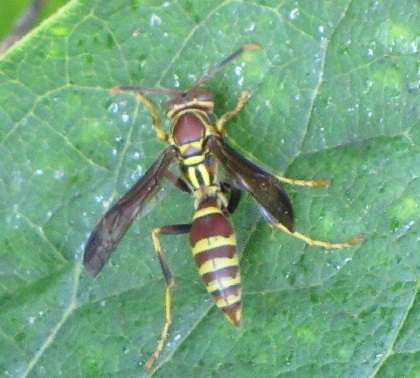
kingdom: Animalia
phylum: Arthropoda
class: Insecta
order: Hymenoptera
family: Eumenidae
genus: Polistes
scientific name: Polistes exclamans
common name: Paper wasp
